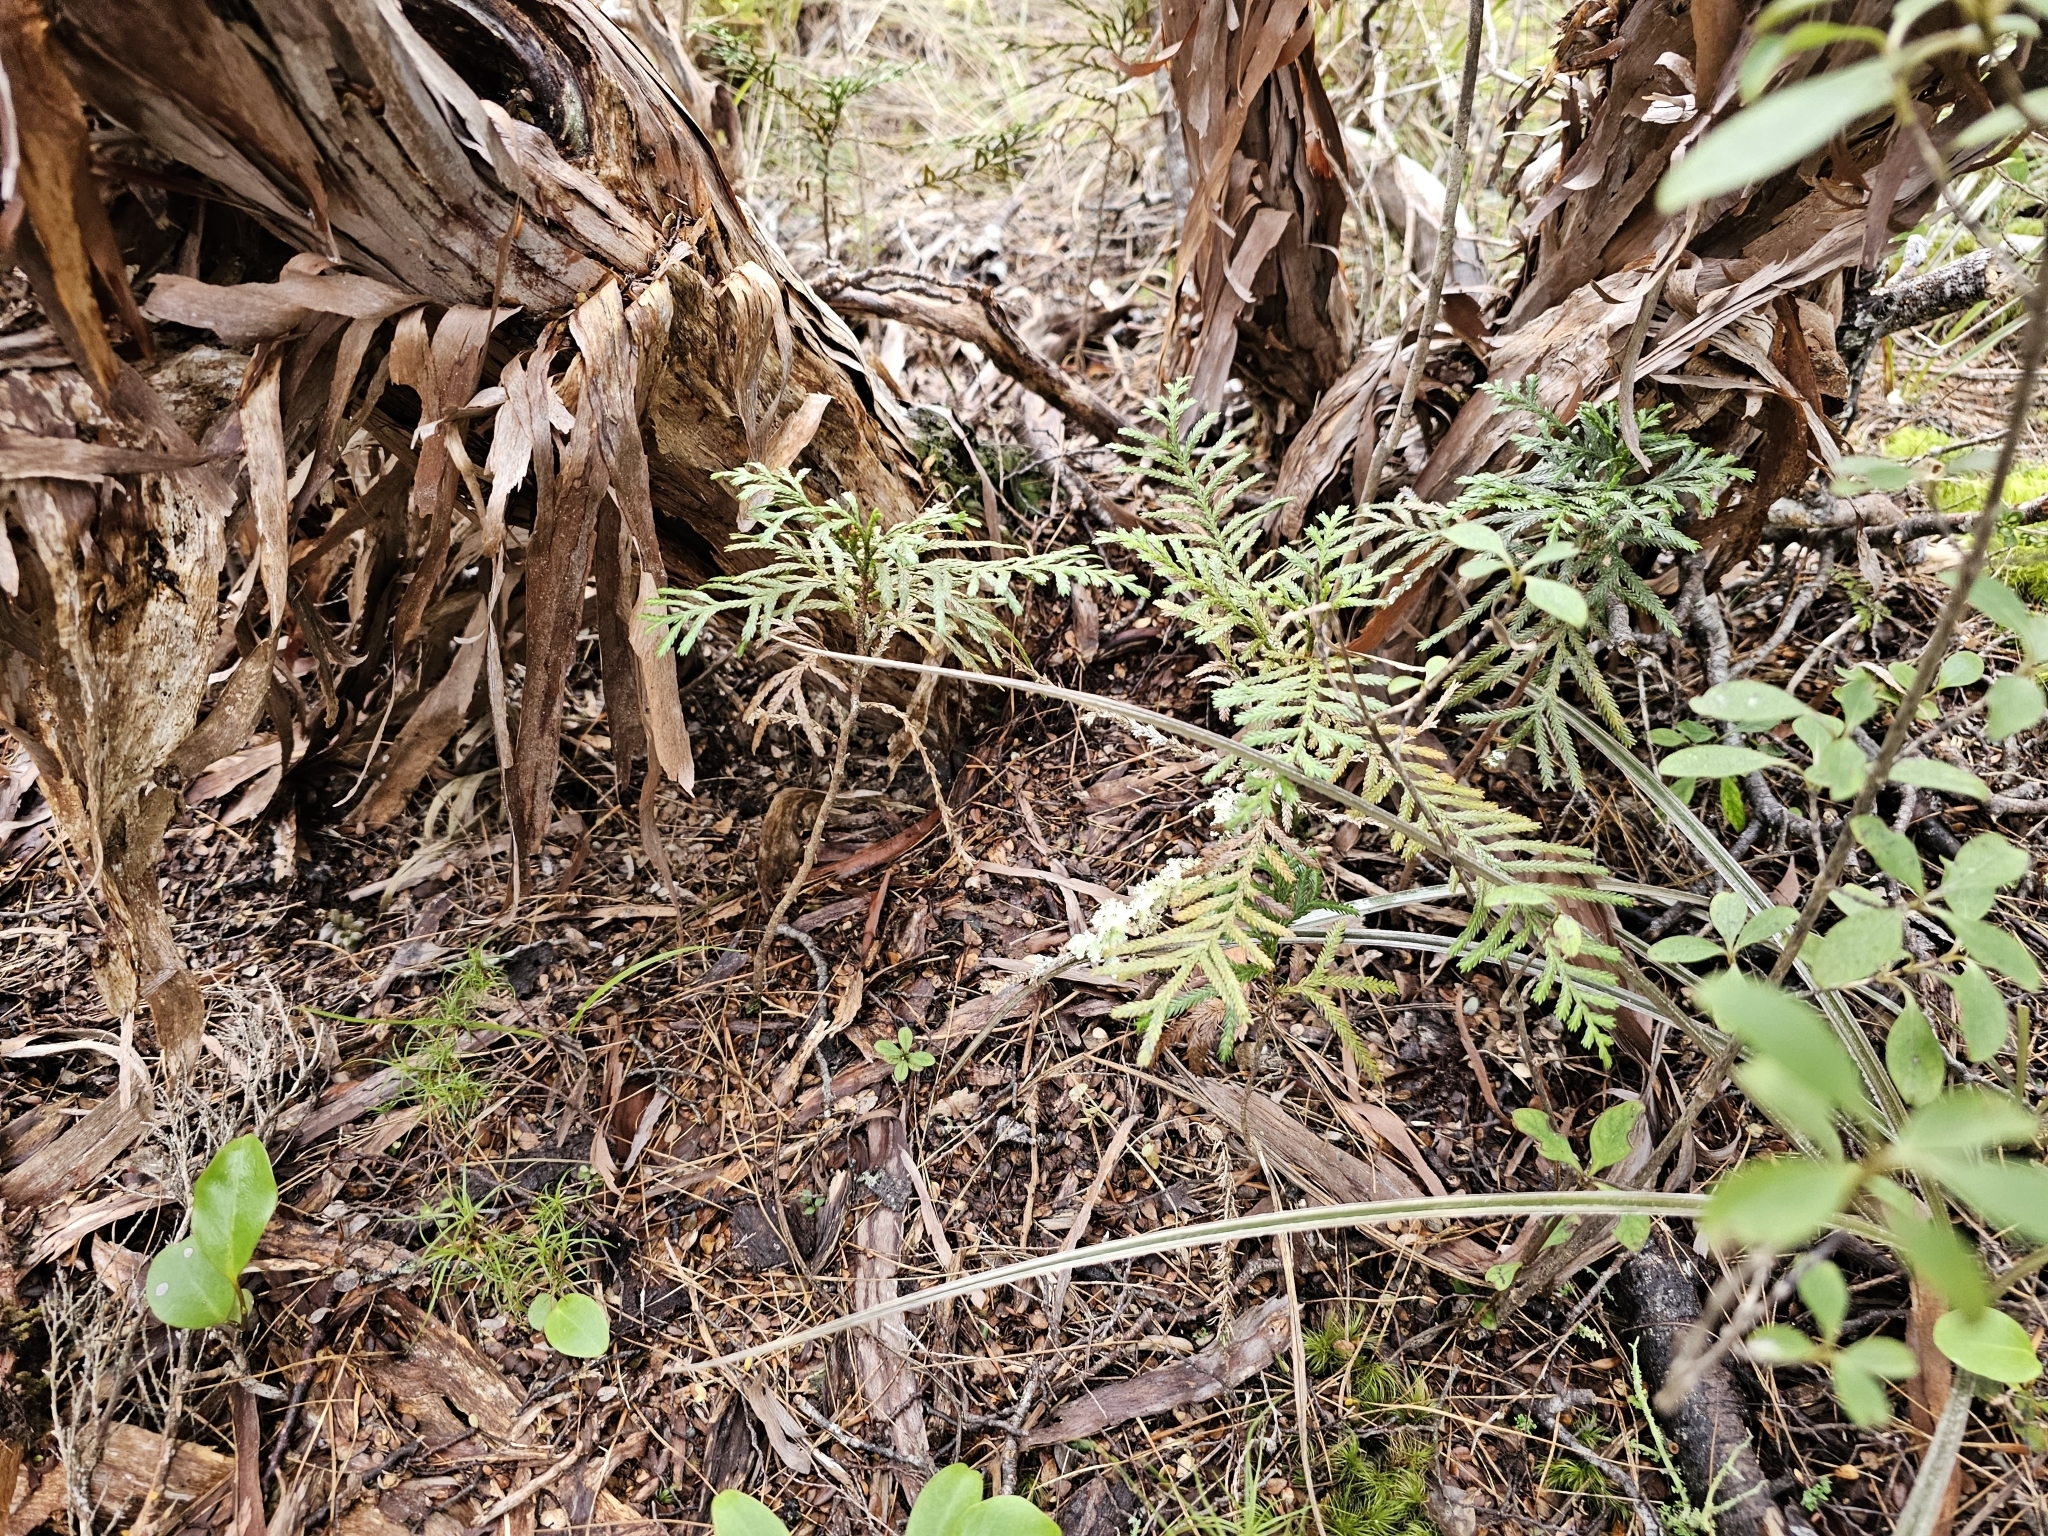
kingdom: Plantae
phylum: Tracheophyta
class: Pinopsida
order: Pinales
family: Cupressaceae
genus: Libocedrus
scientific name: Libocedrus bidwillii
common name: Cedar
